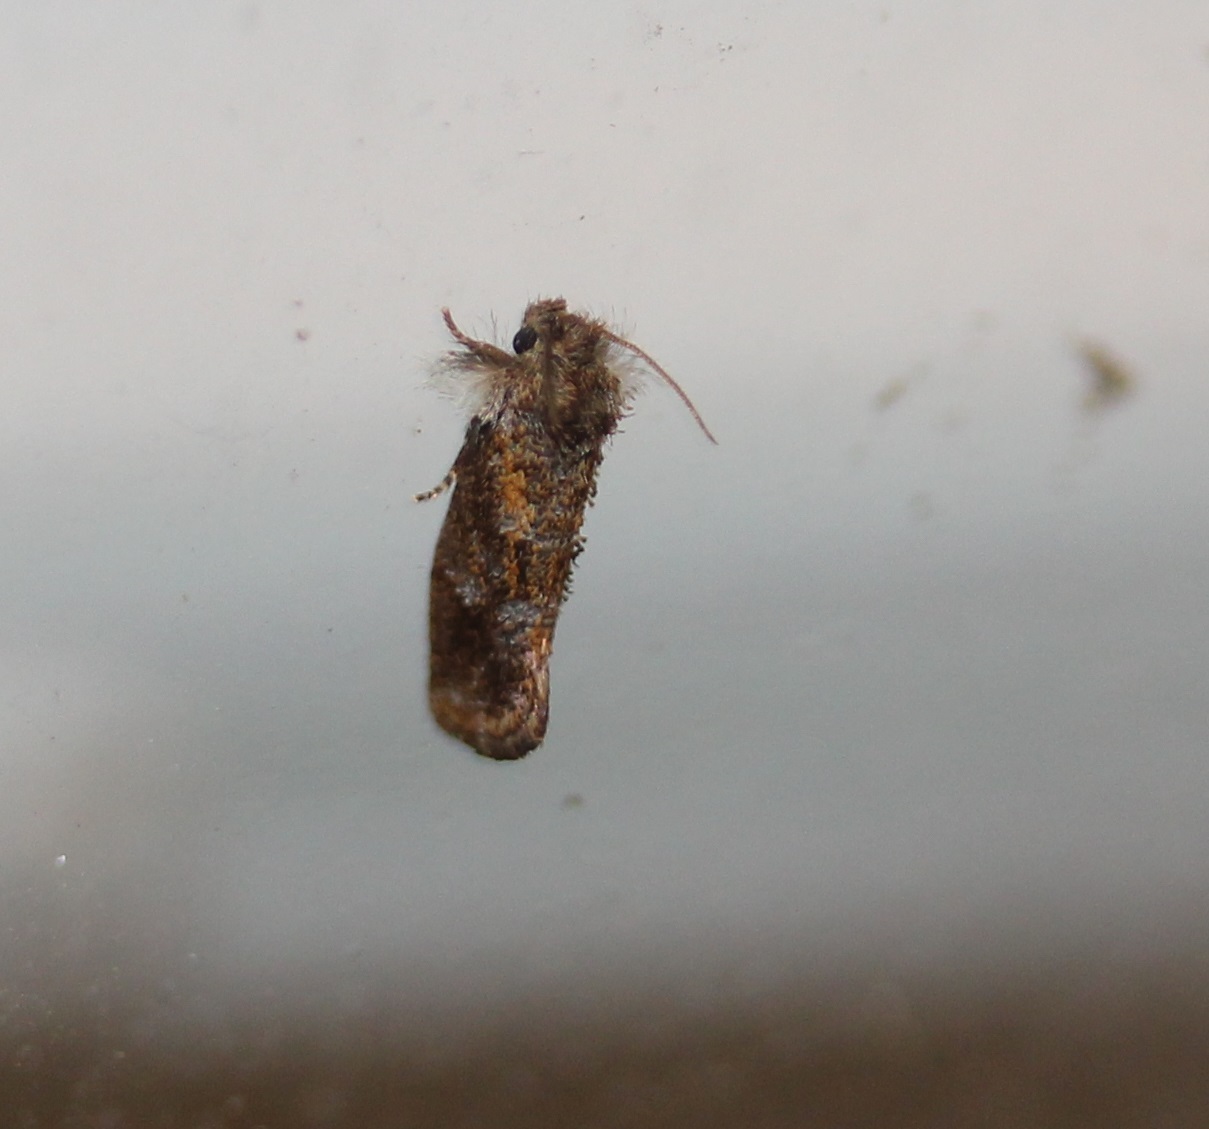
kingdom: Animalia
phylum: Arthropoda
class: Insecta
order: Lepidoptera
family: Tineidae
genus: Acrolophus
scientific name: Acrolophus panamae
